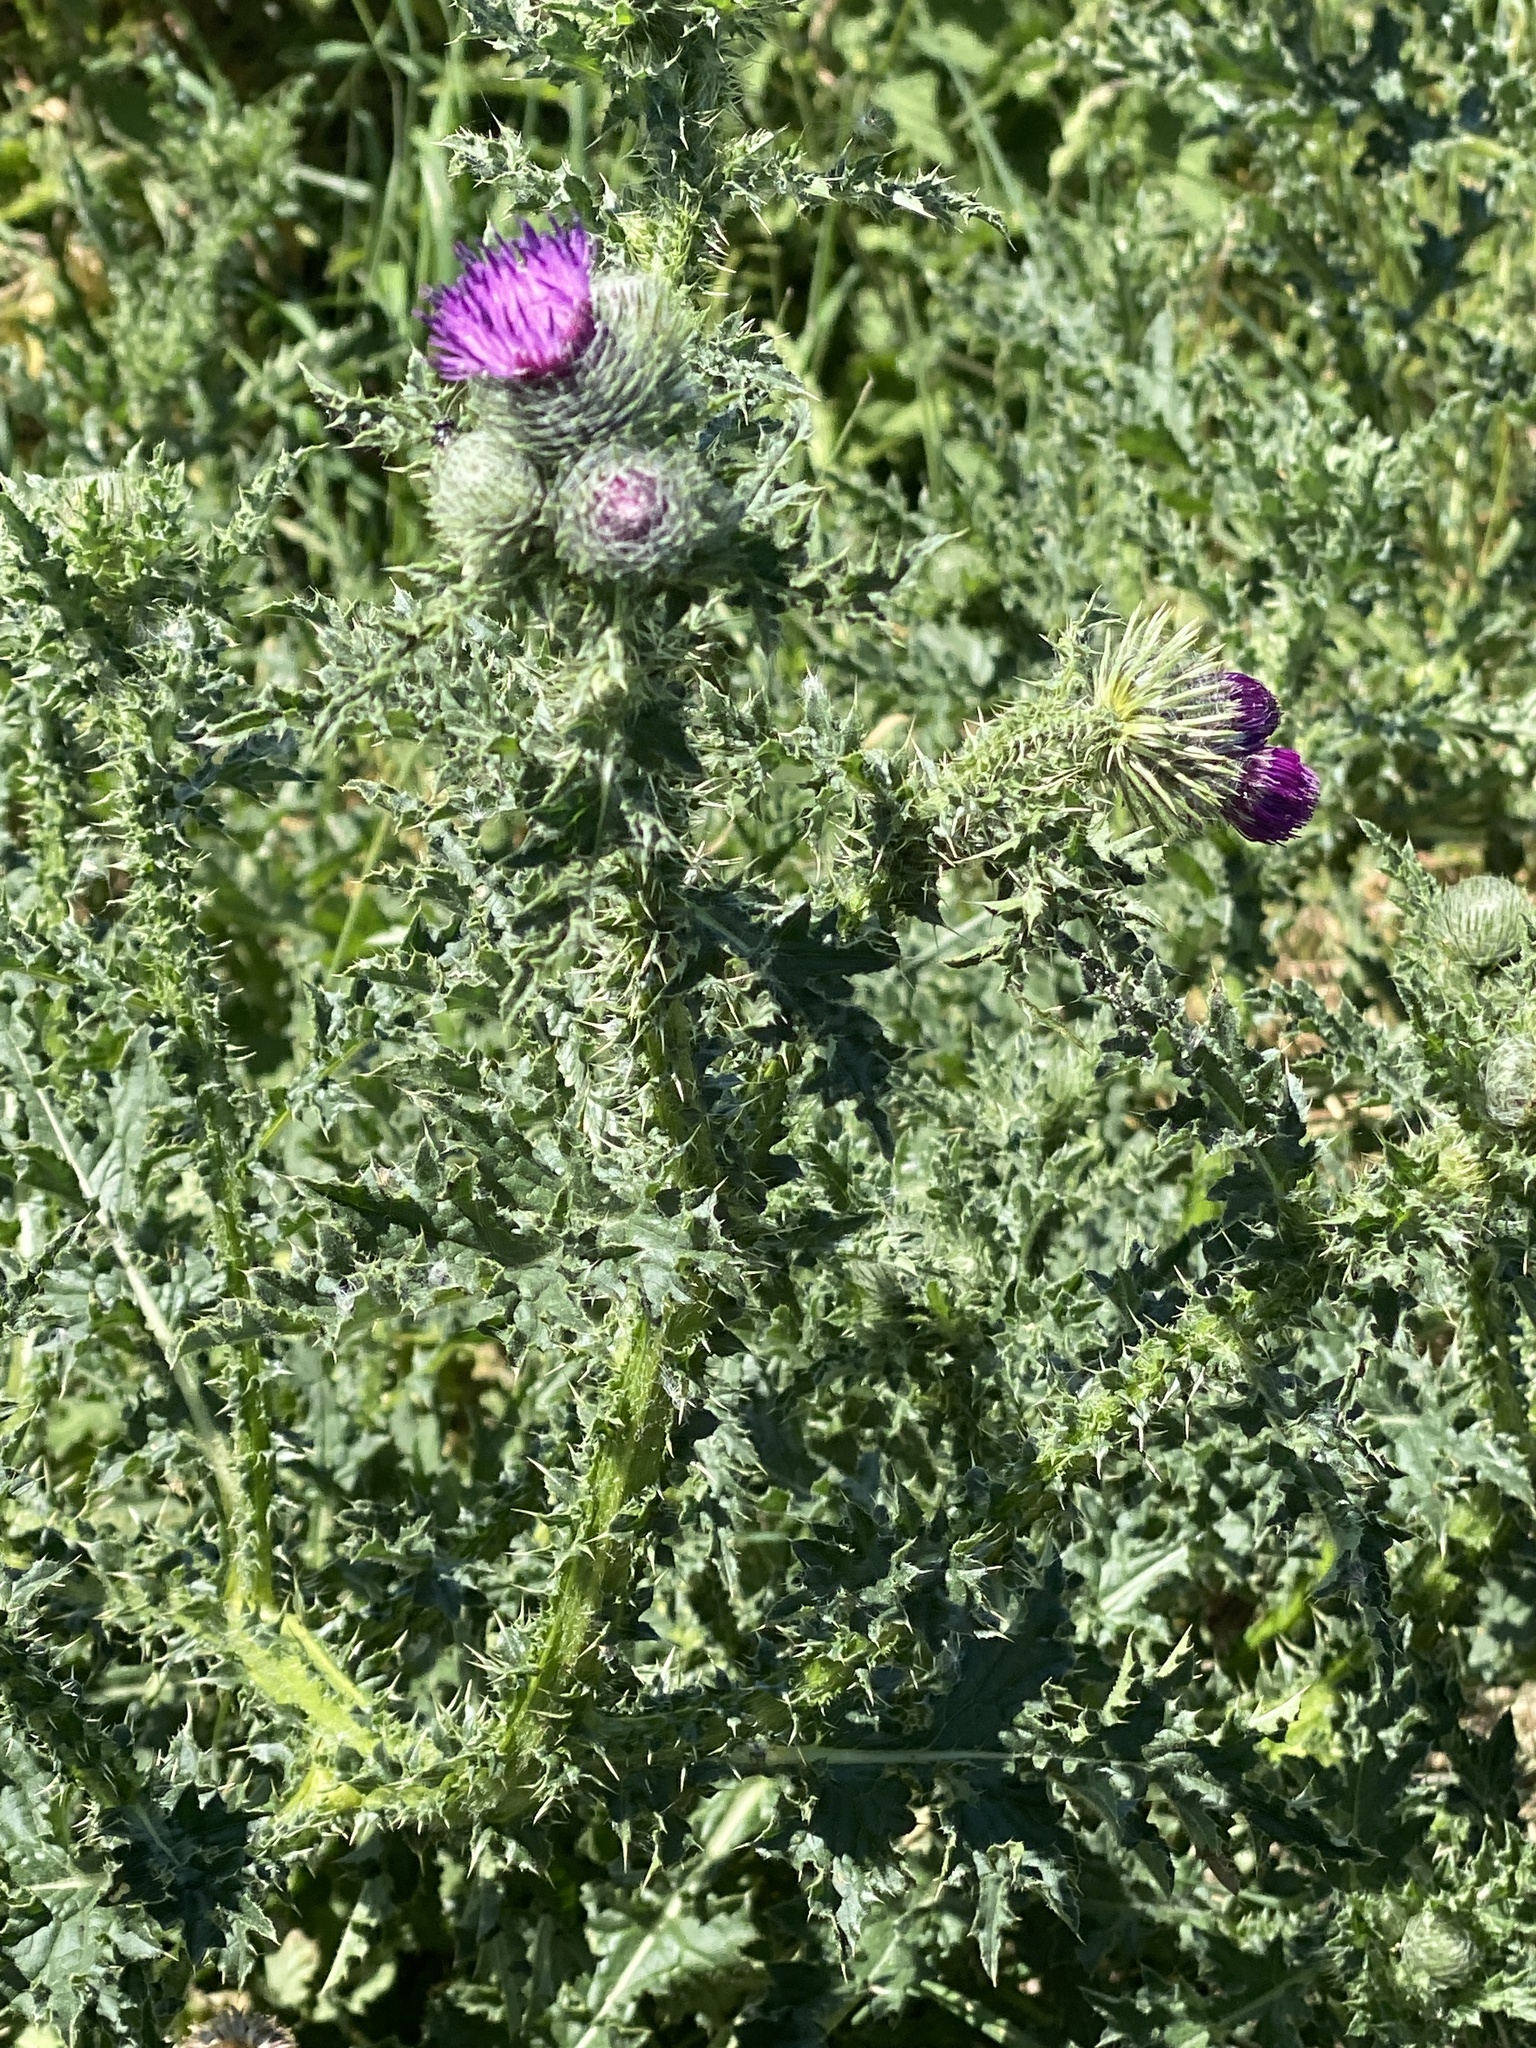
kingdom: Plantae
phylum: Tracheophyta
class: Magnoliopsida
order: Asterales
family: Asteraceae
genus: Carduus
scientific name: Carduus crispus
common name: Welted thistle
